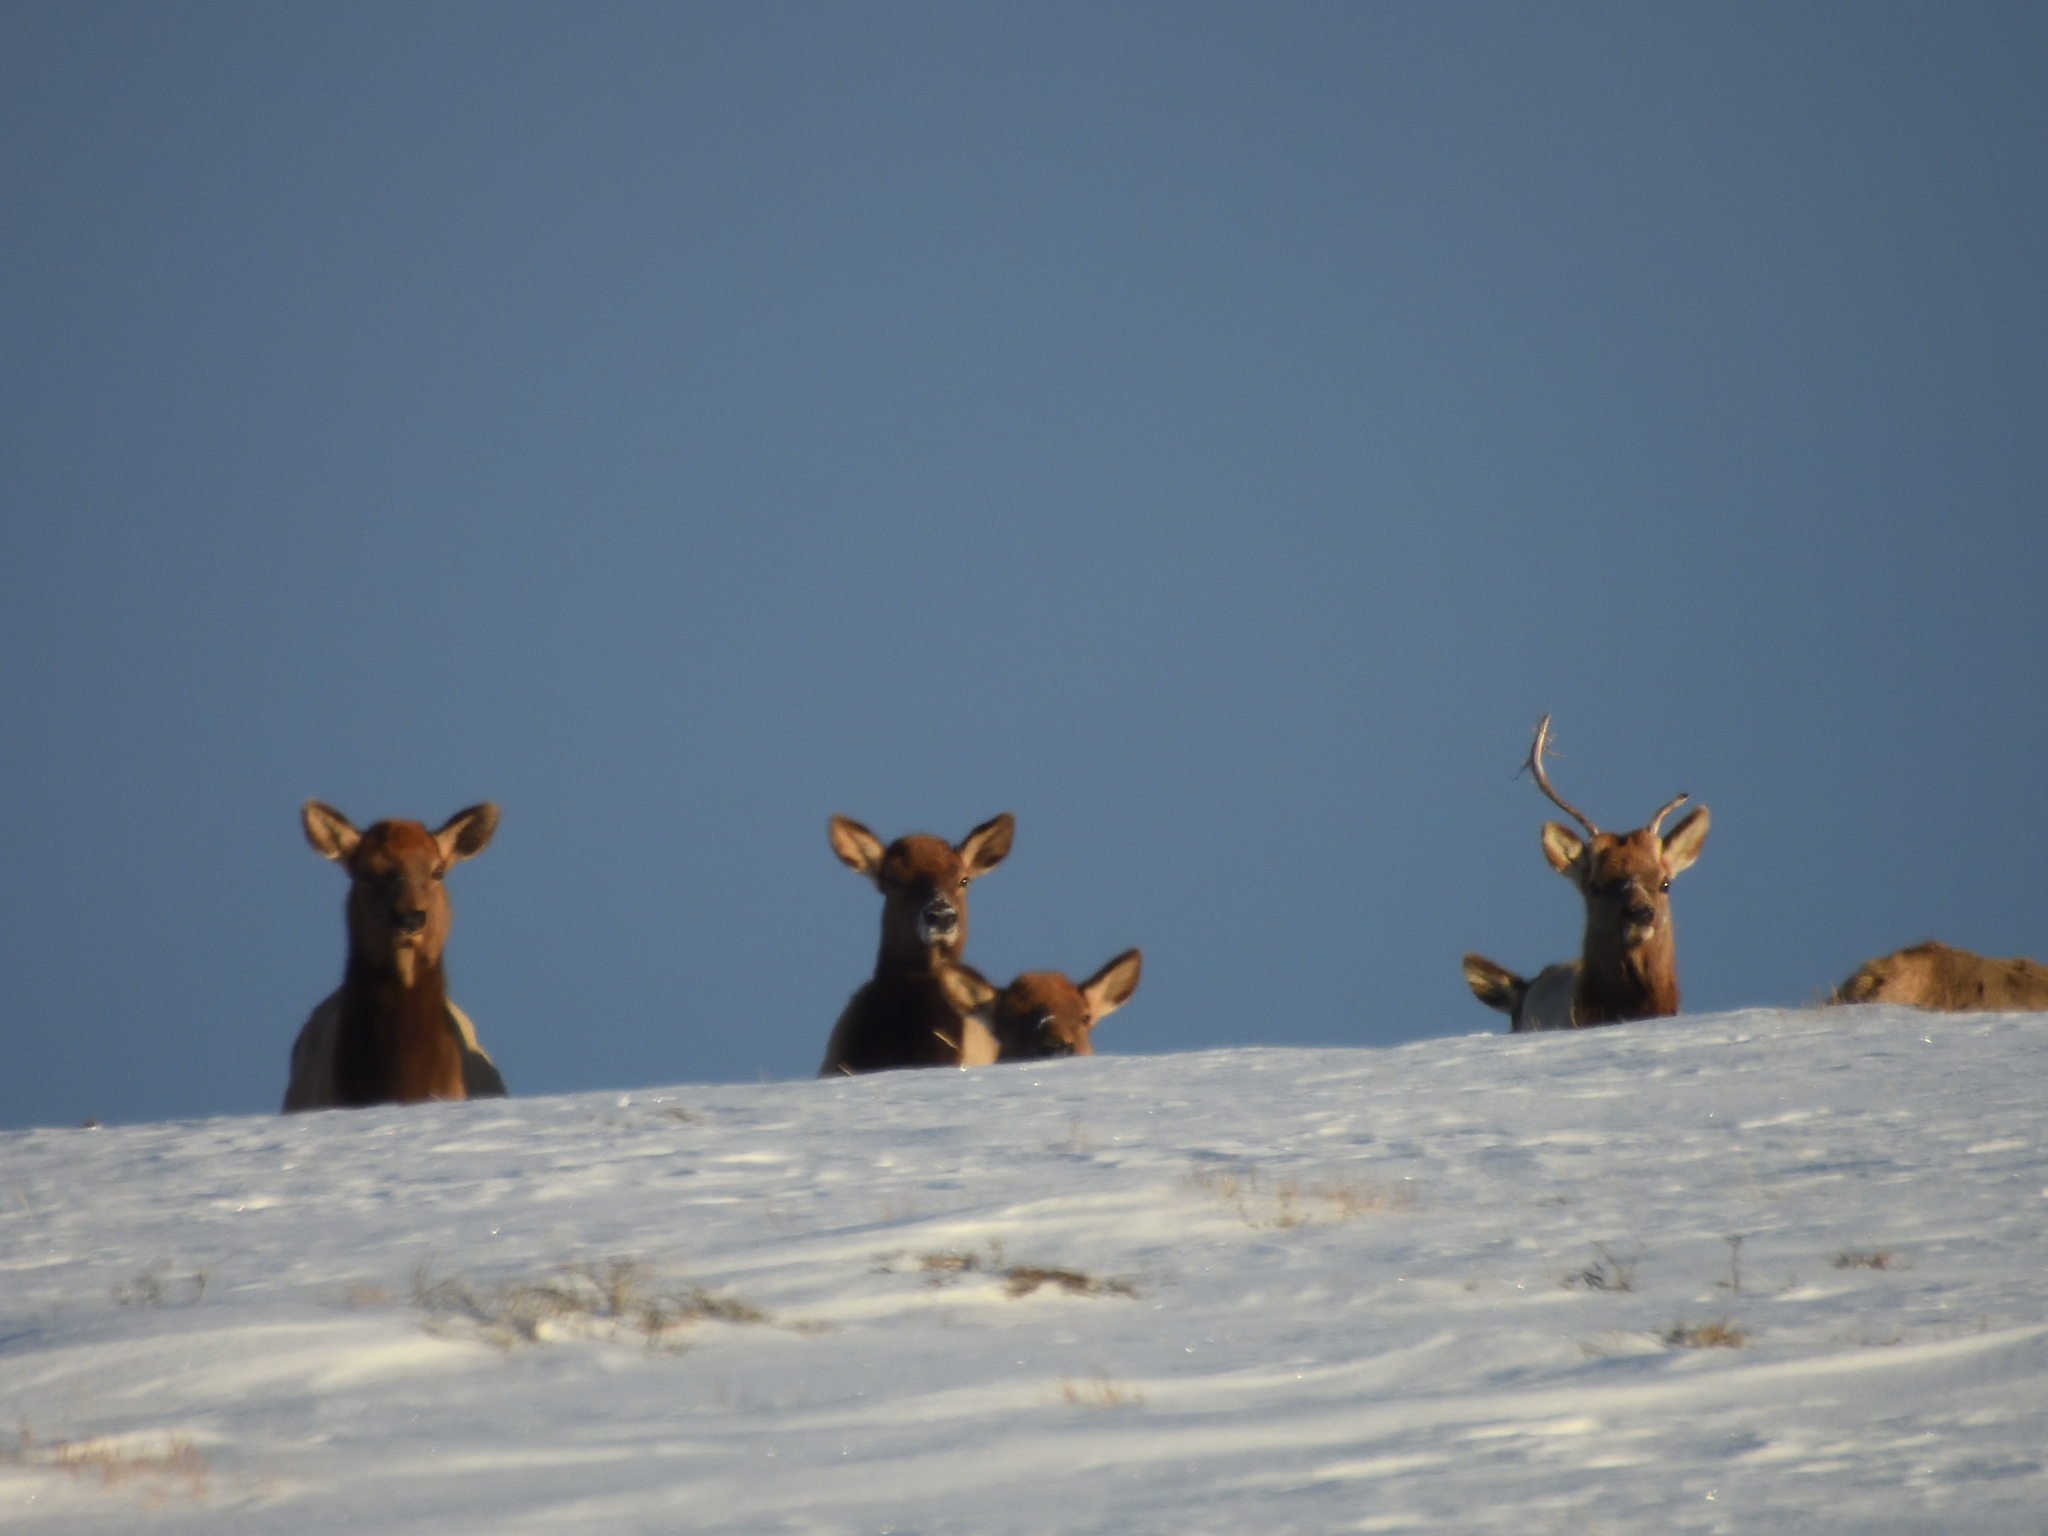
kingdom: Animalia
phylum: Chordata
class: Mammalia
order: Artiodactyla
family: Cervidae
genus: Cervus
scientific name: Cervus elaphus
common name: Red deer
